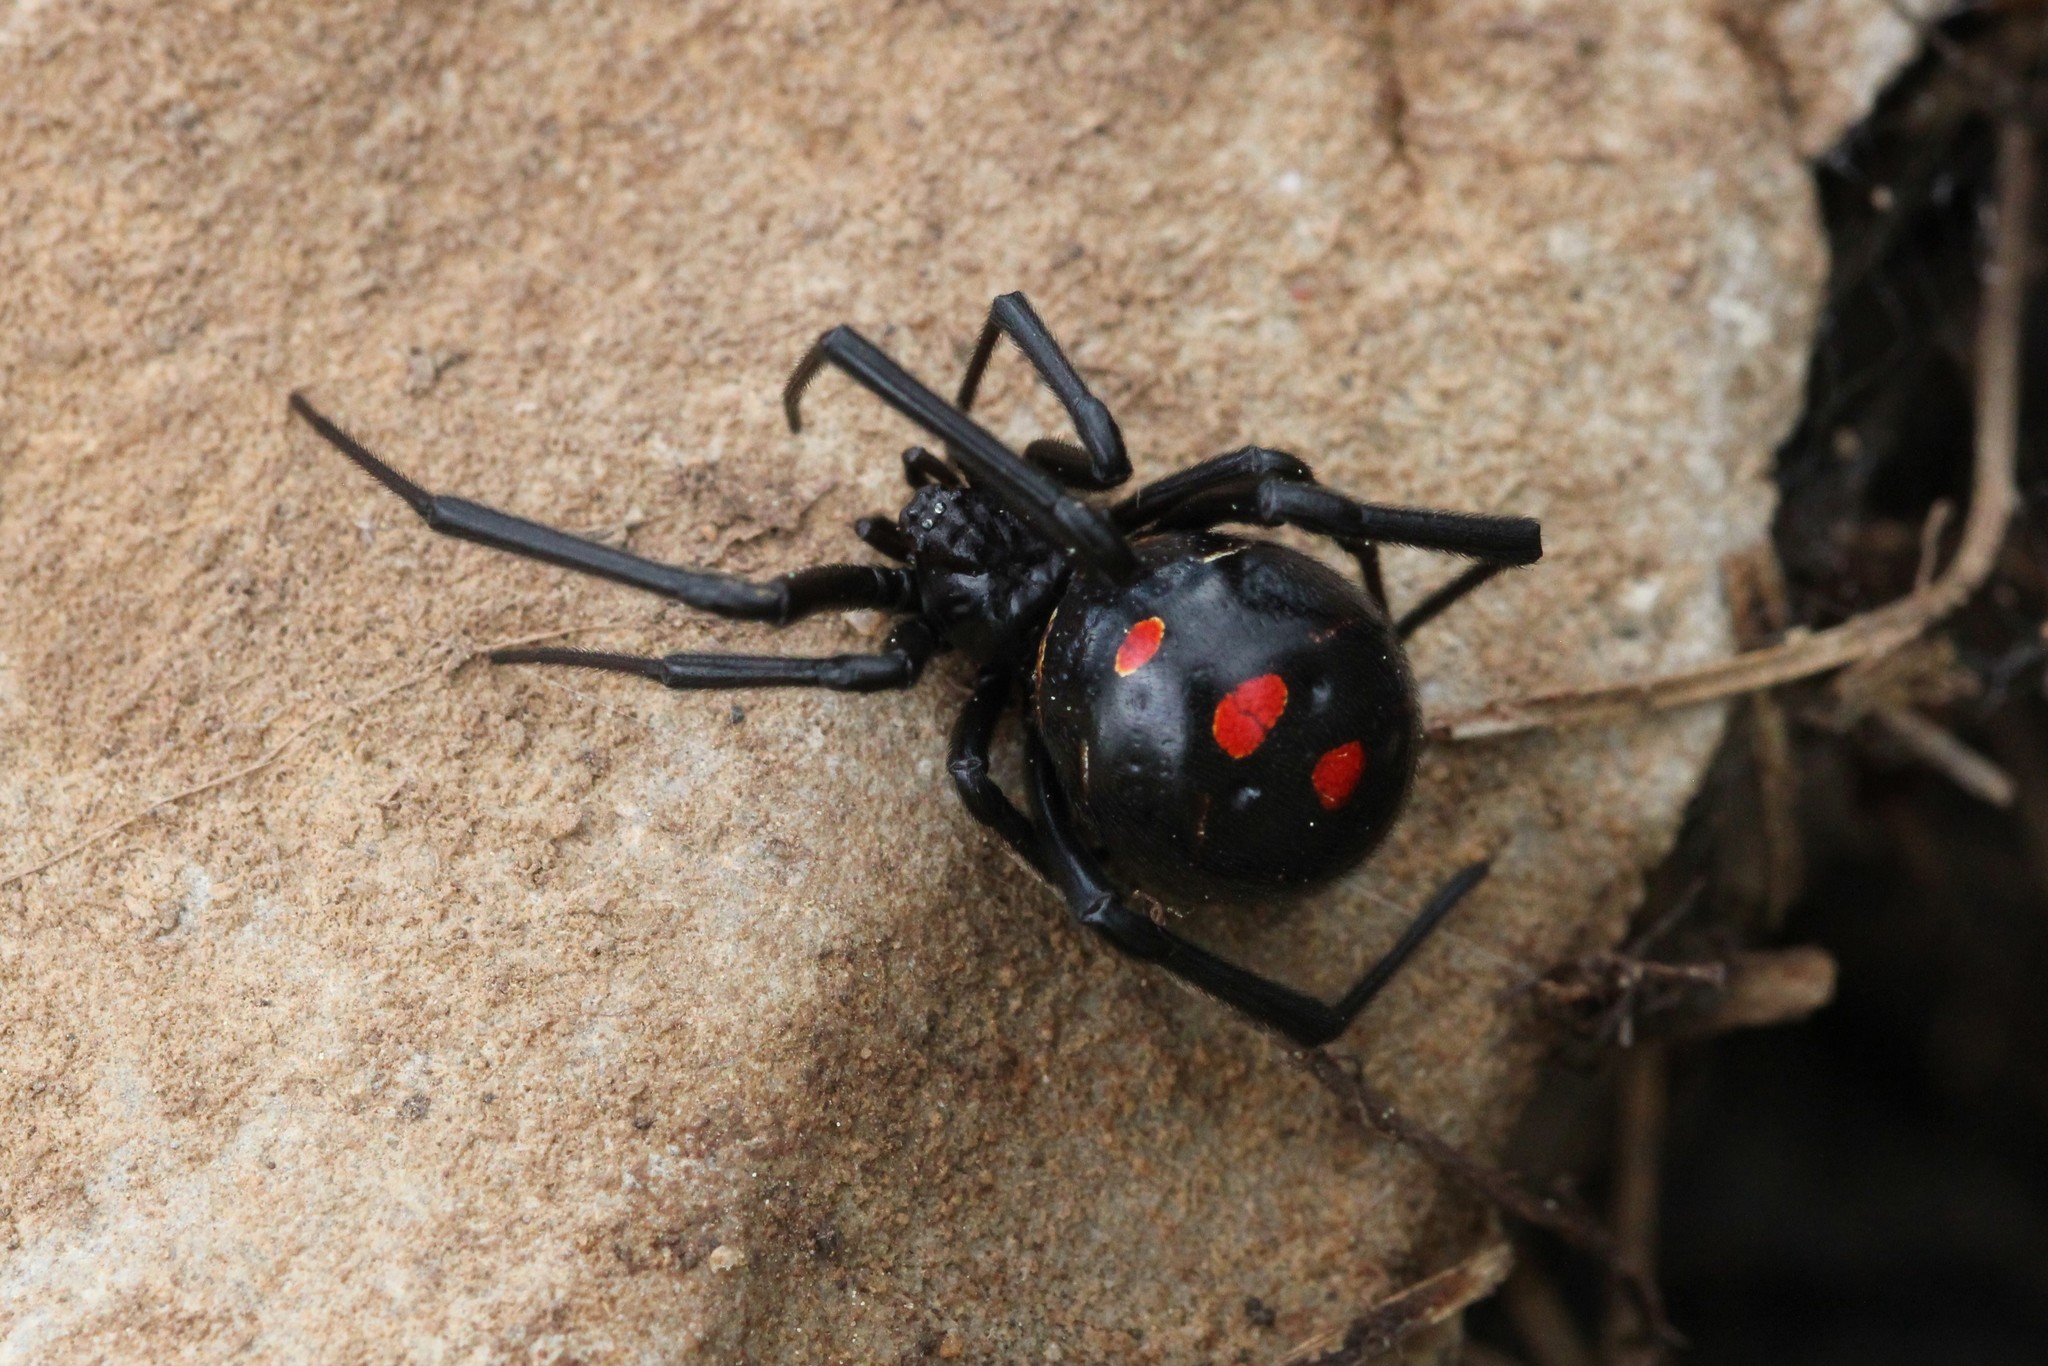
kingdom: Animalia
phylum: Arthropoda
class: Arachnida
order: Araneae
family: Theridiidae
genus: Latrodectus
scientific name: Latrodectus variolus
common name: Northern black widow
